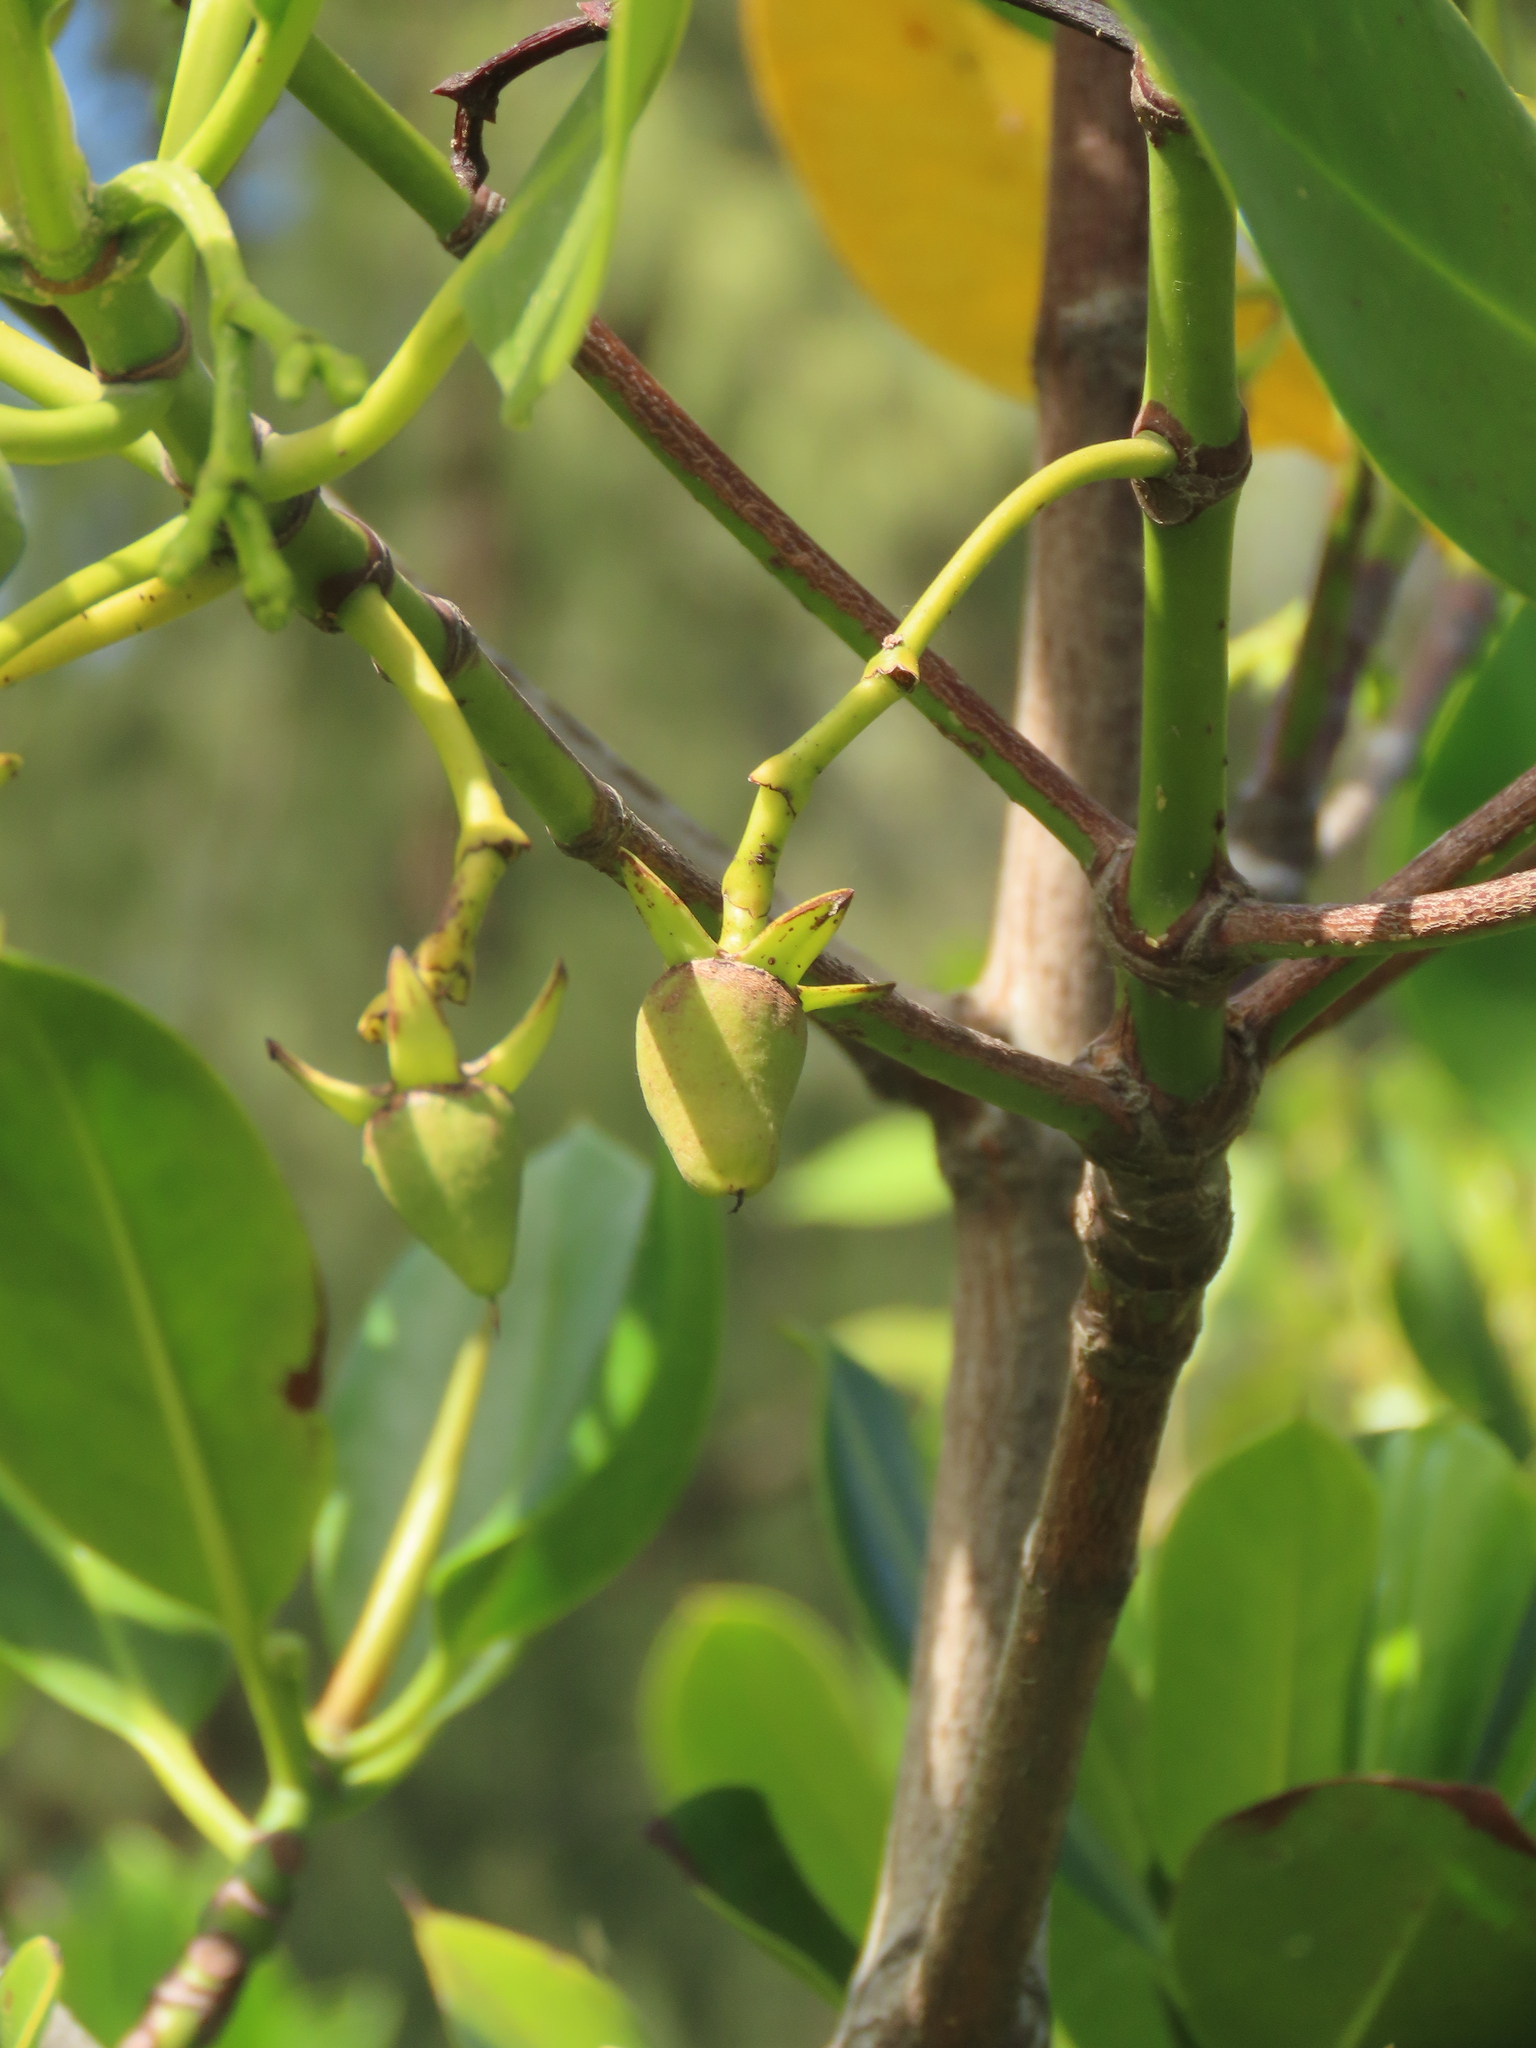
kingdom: Plantae
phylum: Tracheophyta
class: Magnoliopsida
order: Malpighiales
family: Rhizophoraceae
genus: Rhizophora
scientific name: Rhizophora stylosa
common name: Red mangrove
